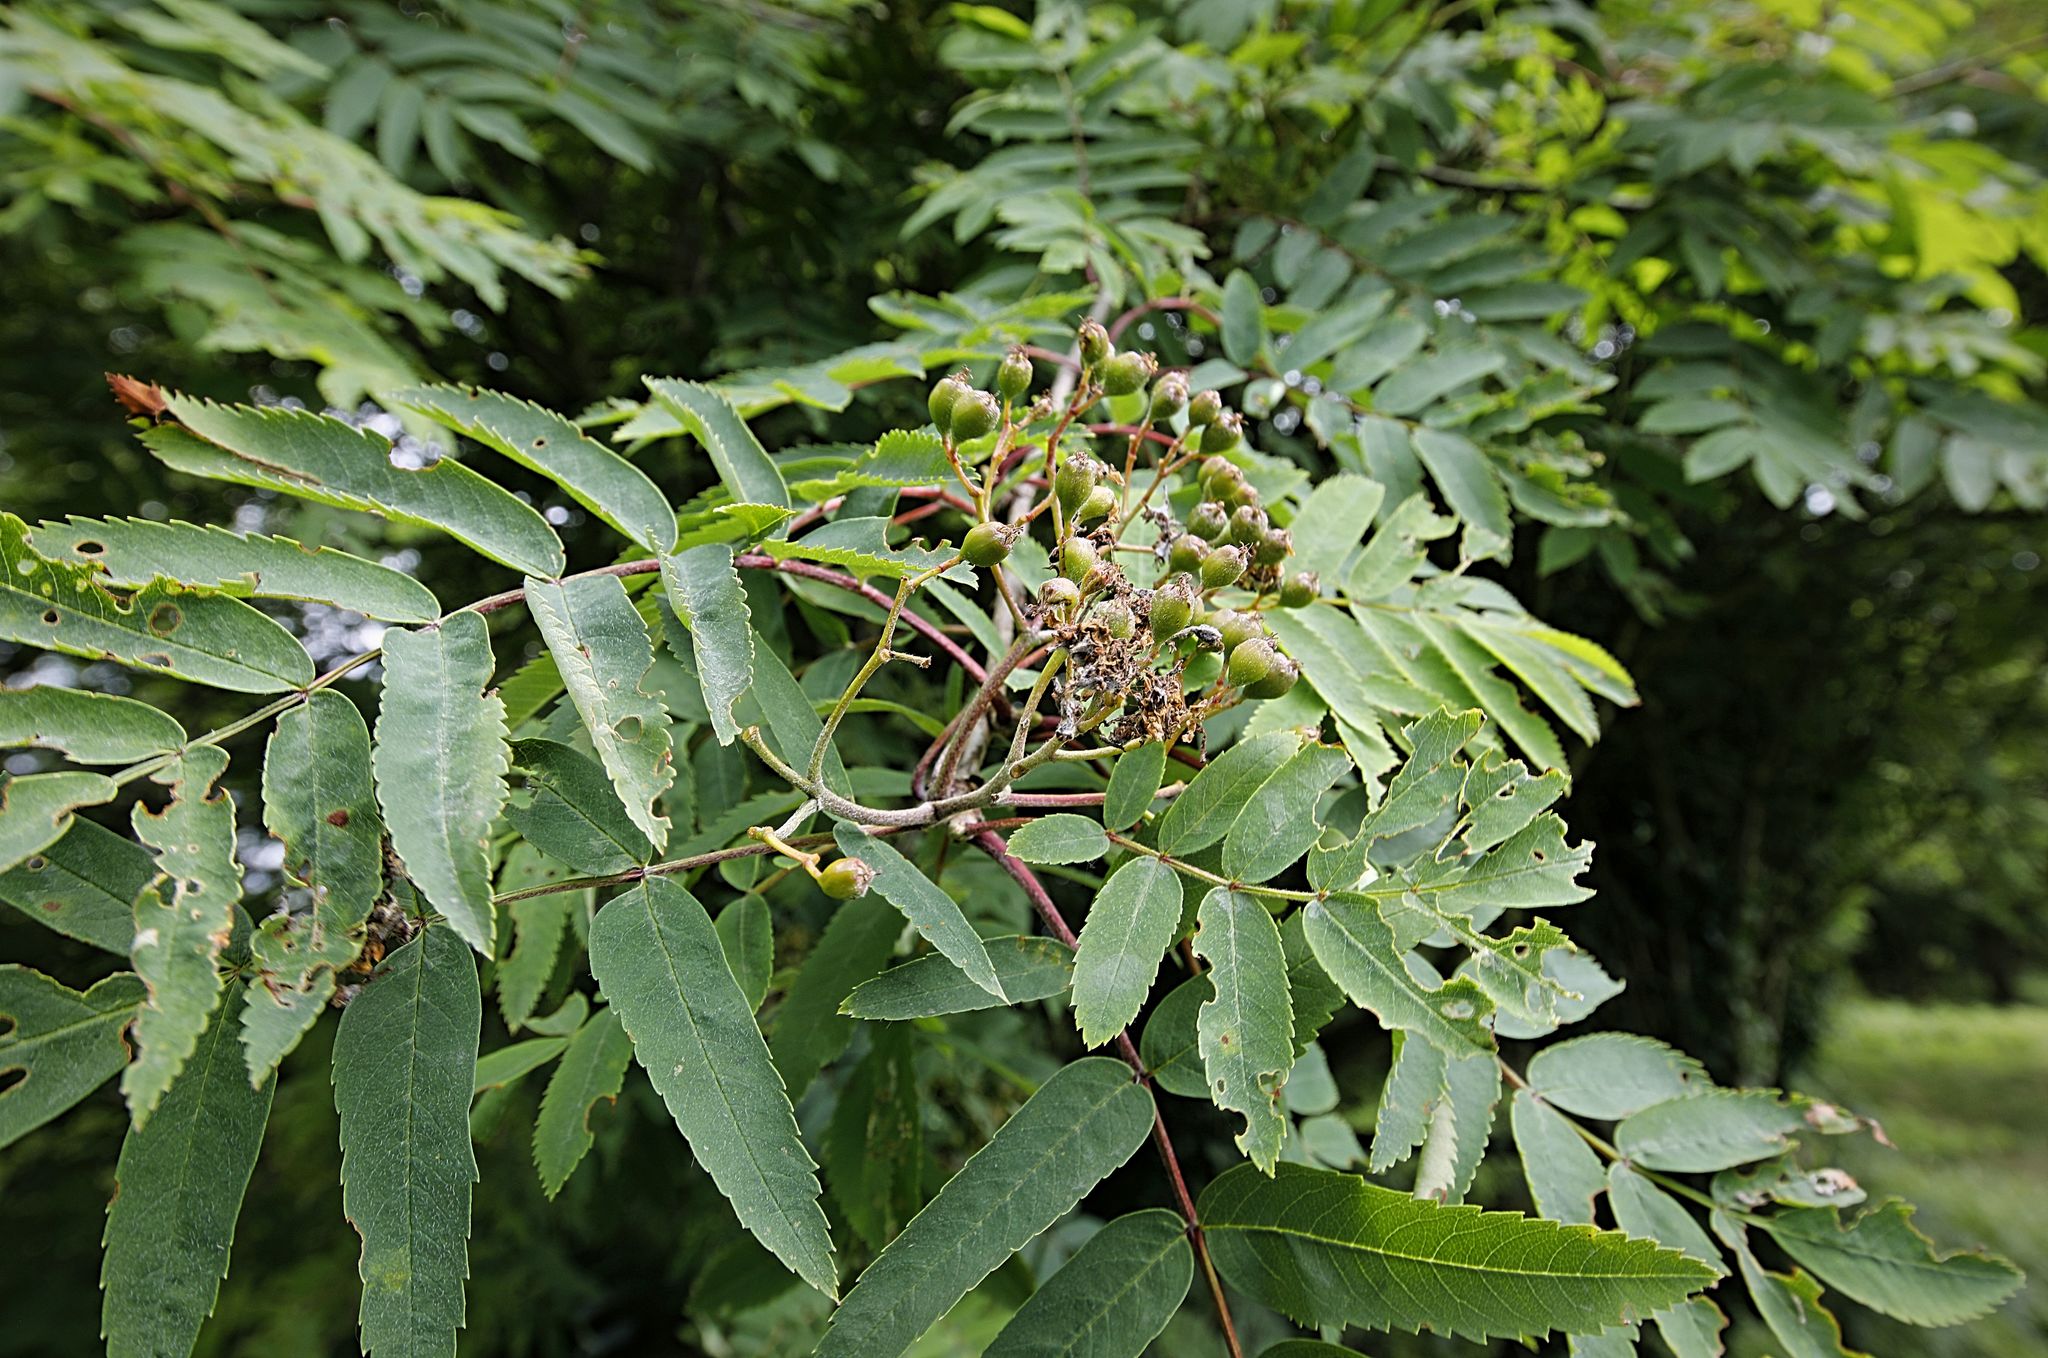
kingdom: Plantae
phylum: Tracheophyta
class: Magnoliopsida
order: Rosales
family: Rosaceae
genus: Sorbus
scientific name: Sorbus aucuparia
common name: Rowan
